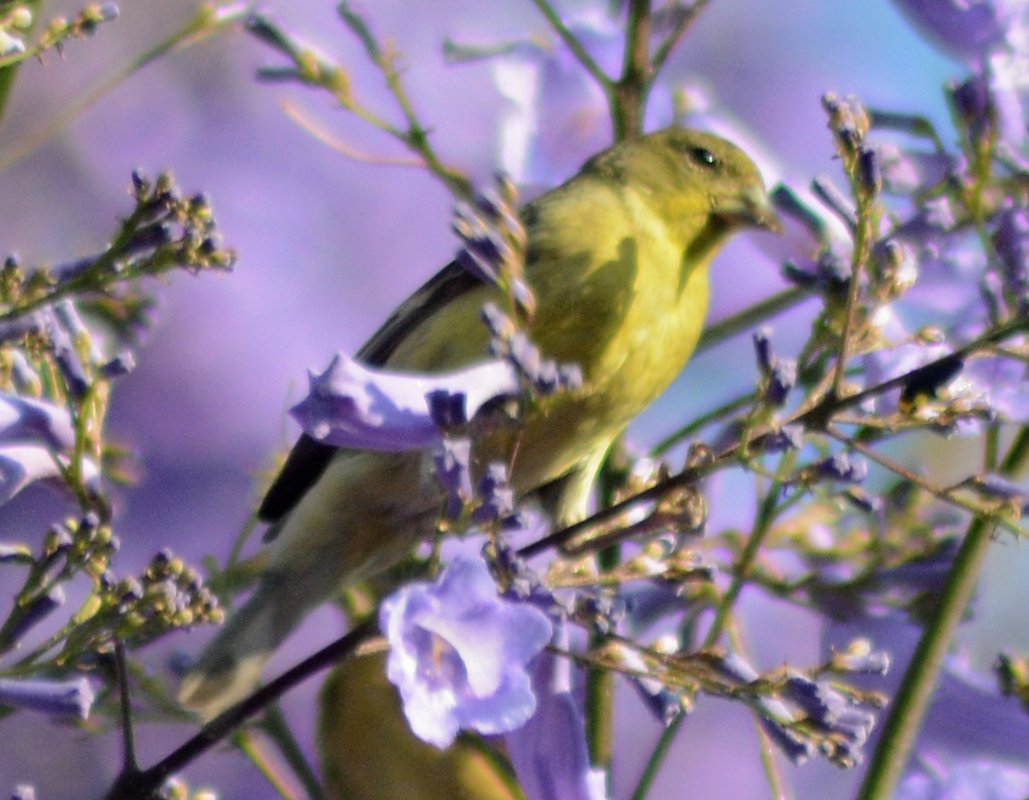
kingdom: Animalia
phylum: Chordata
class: Aves
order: Passeriformes
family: Fringillidae
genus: Spinus
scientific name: Spinus psaltria
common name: Lesser goldfinch
